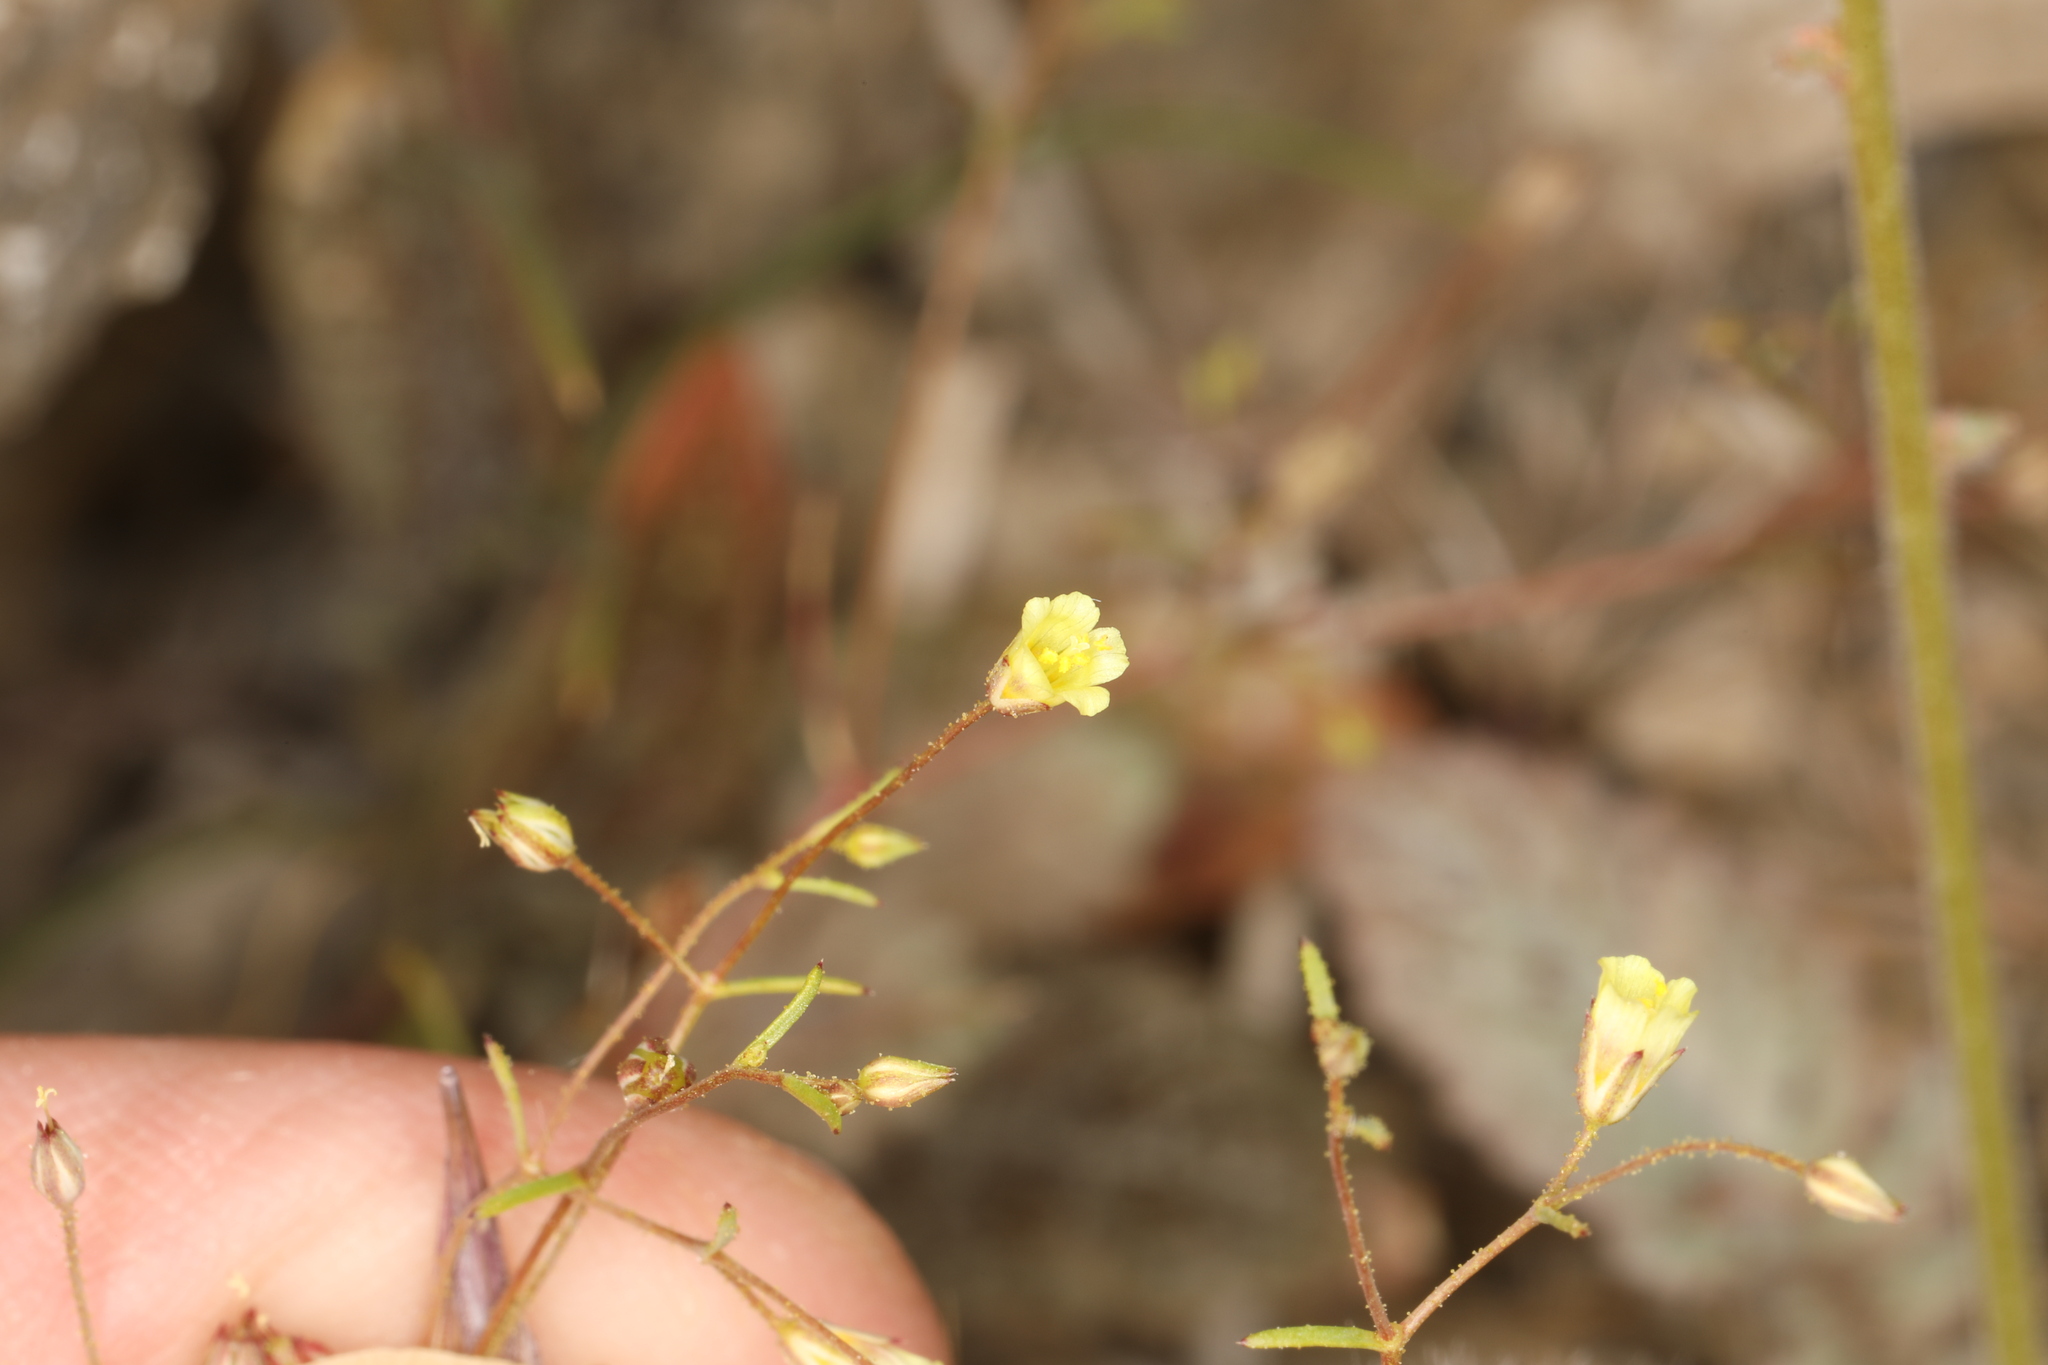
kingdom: Plantae
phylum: Tracheophyta
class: Magnoliopsida
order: Ericales
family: Polemoniaceae
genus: Linanthus
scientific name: Linanthus filiformis
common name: Yellow gilia
